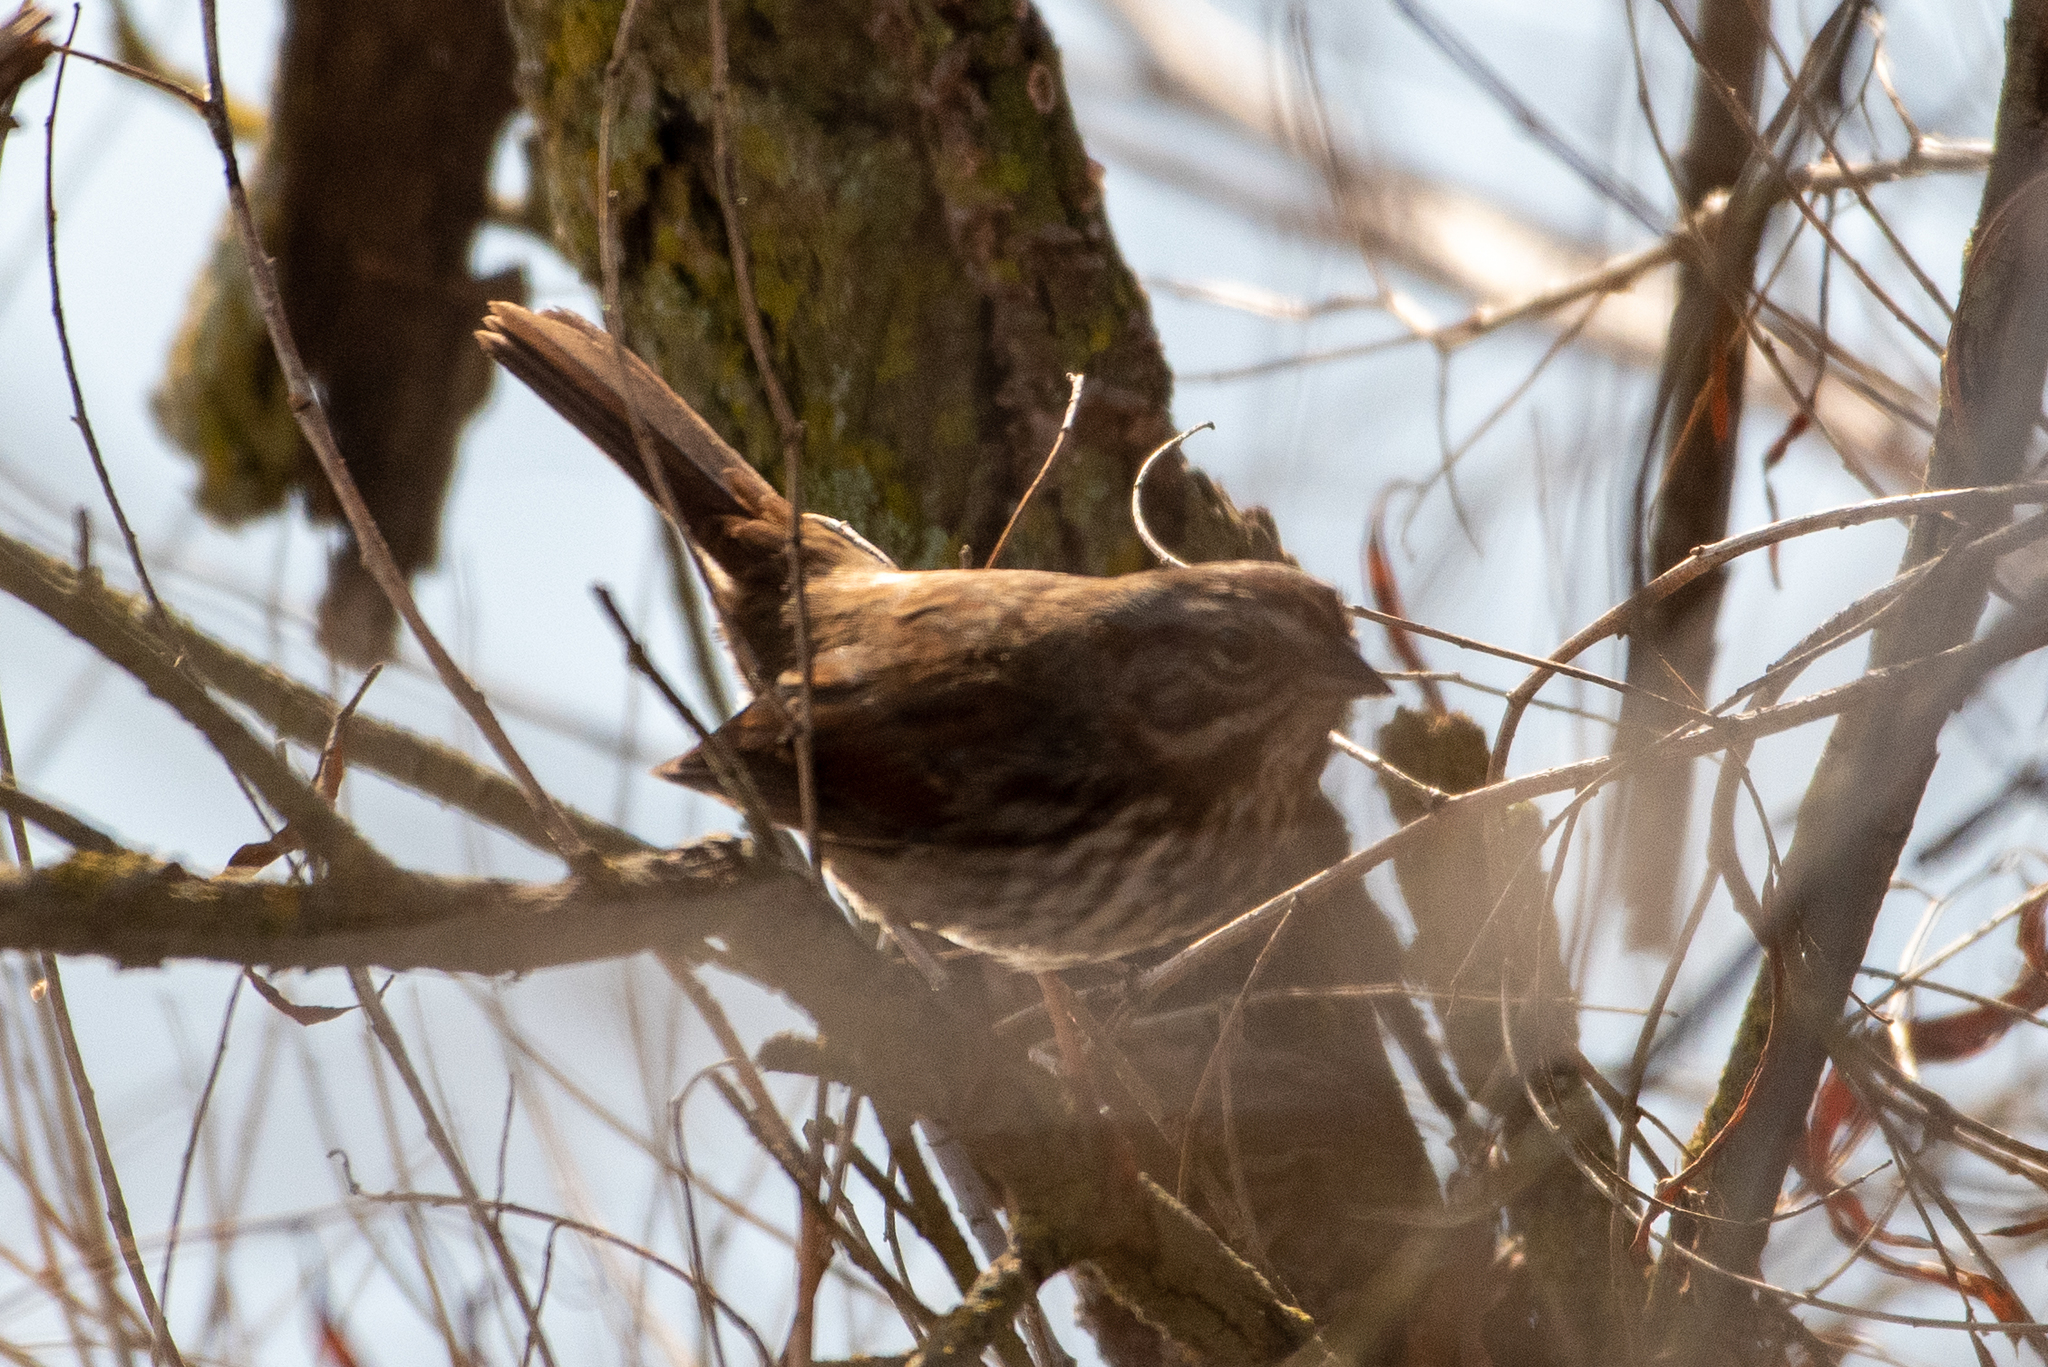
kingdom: Animalia
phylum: Chordata
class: Aves
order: Passeriformes
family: Passerellidae
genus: Melospiza
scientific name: Melospiza melodia
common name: Song sparrow
